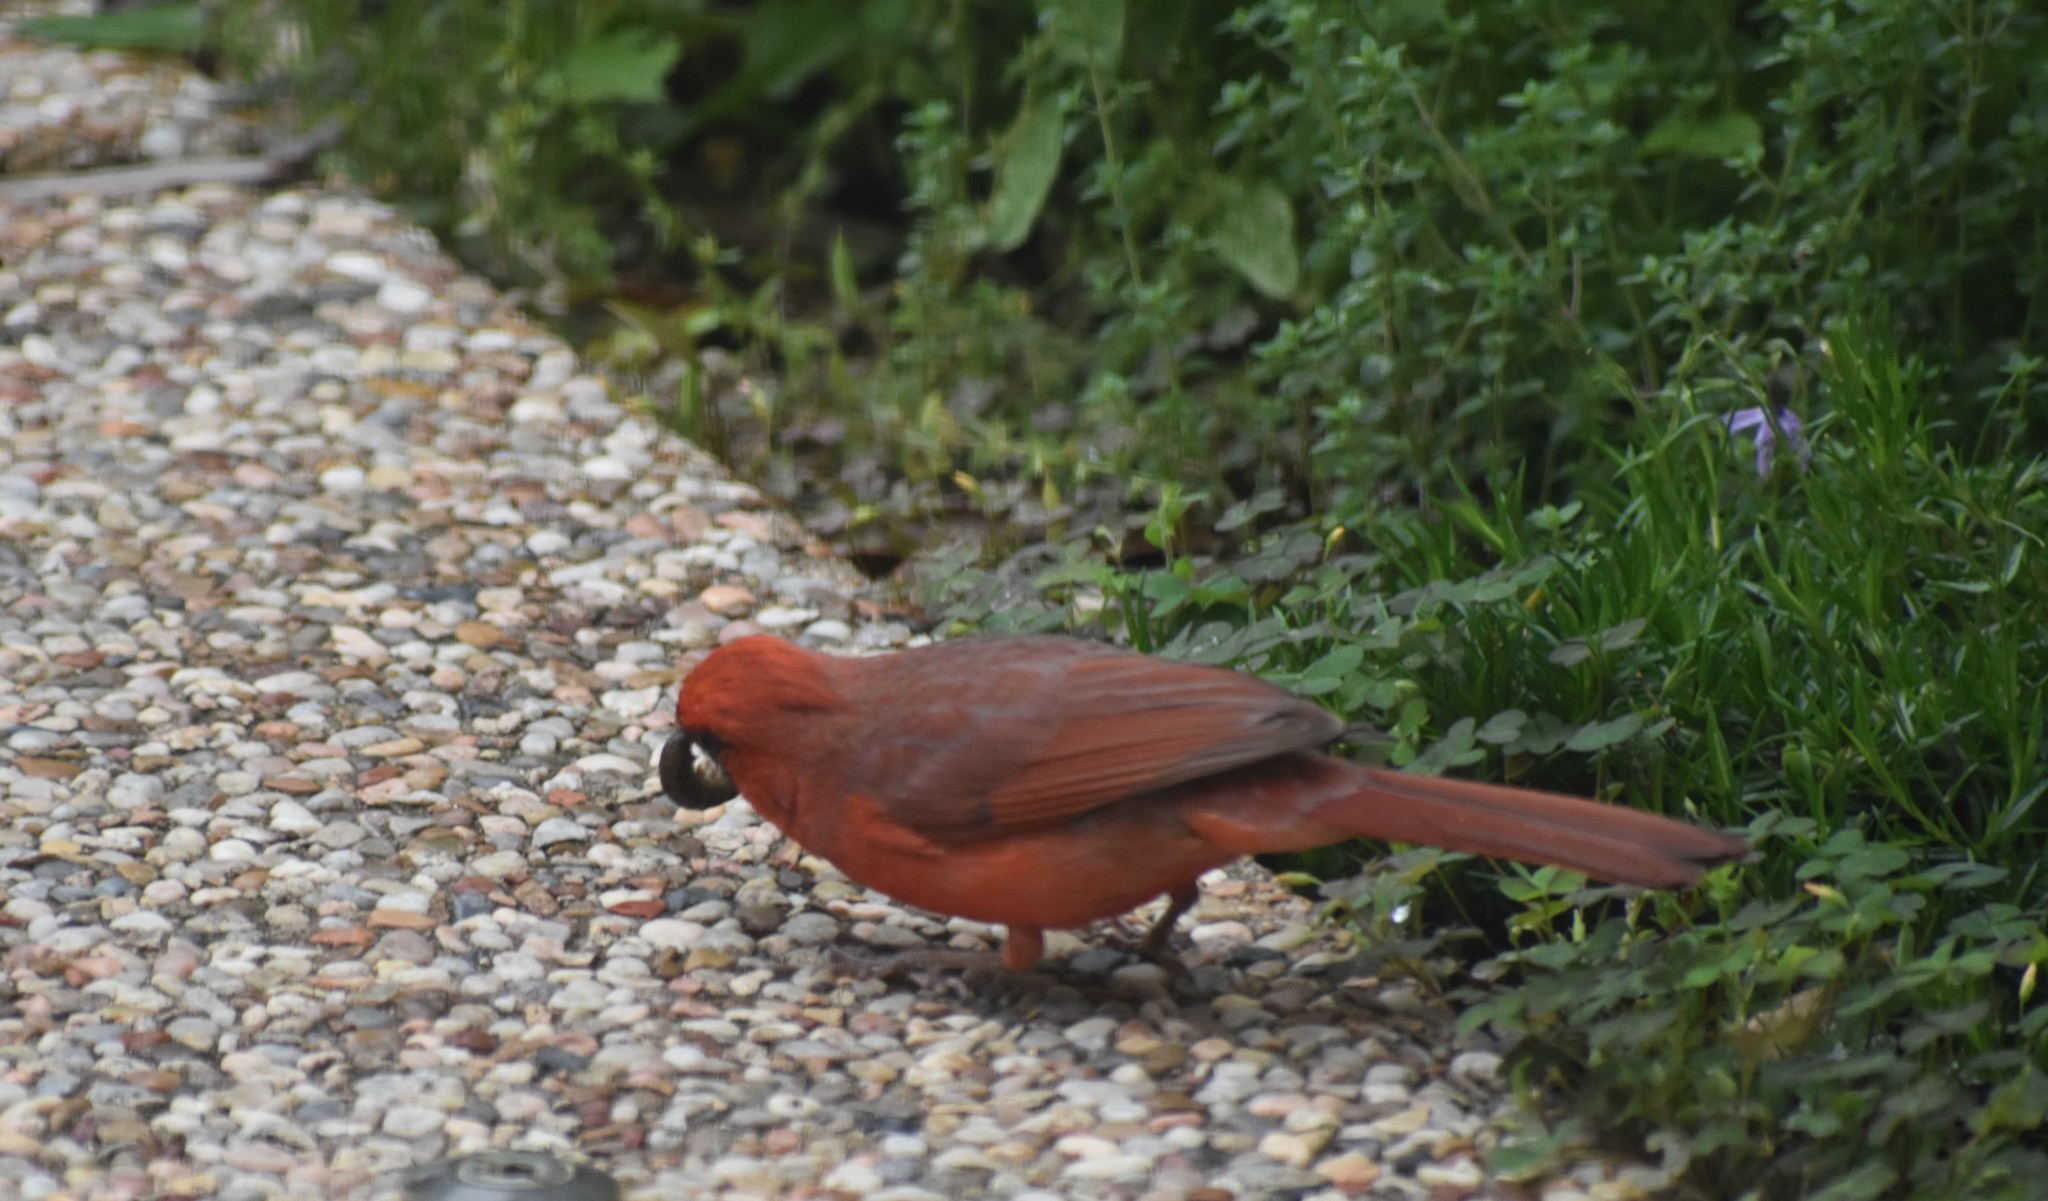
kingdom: Animalia
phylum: Chordata
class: Aves
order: Passeriformes
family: Cardinalidae
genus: Cardinalis
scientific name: Cardinalis cardinalis
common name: Northern cardinal
